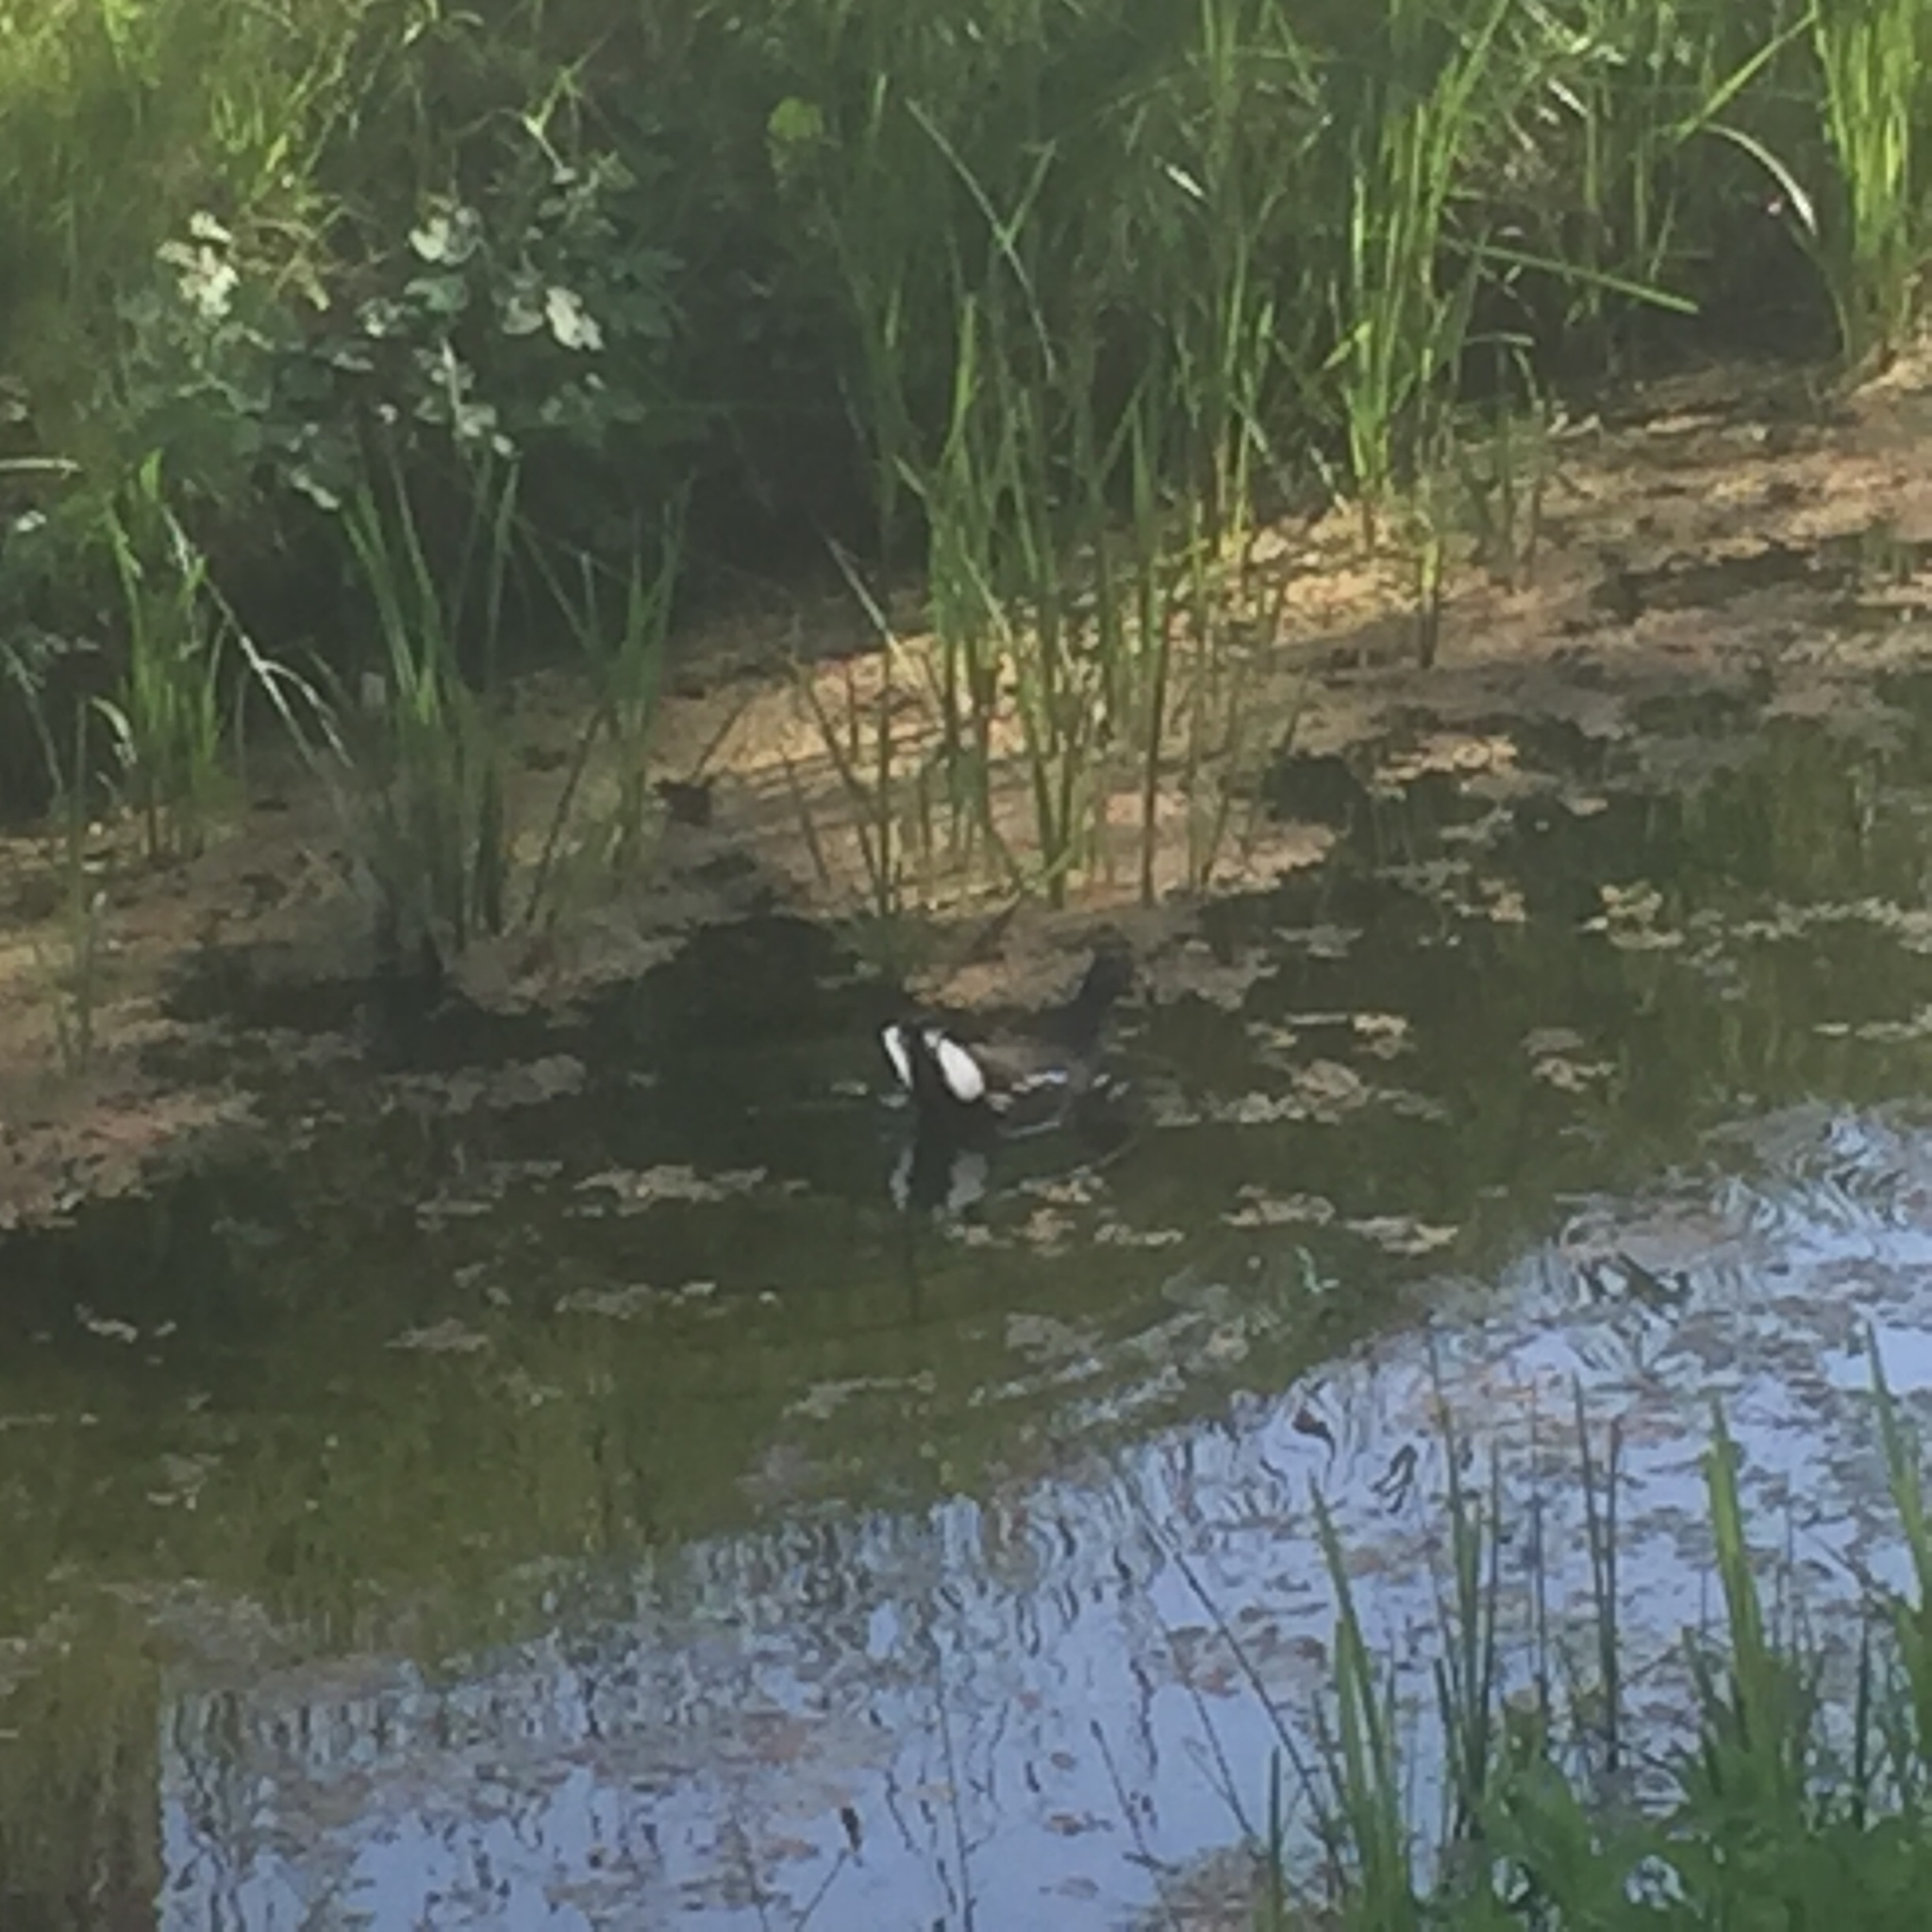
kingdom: Animalia
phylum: Chordata
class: Aves
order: Gruiformes
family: Rallidae
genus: Gallinula
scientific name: Gallinula chloropus
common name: Common moorhen
